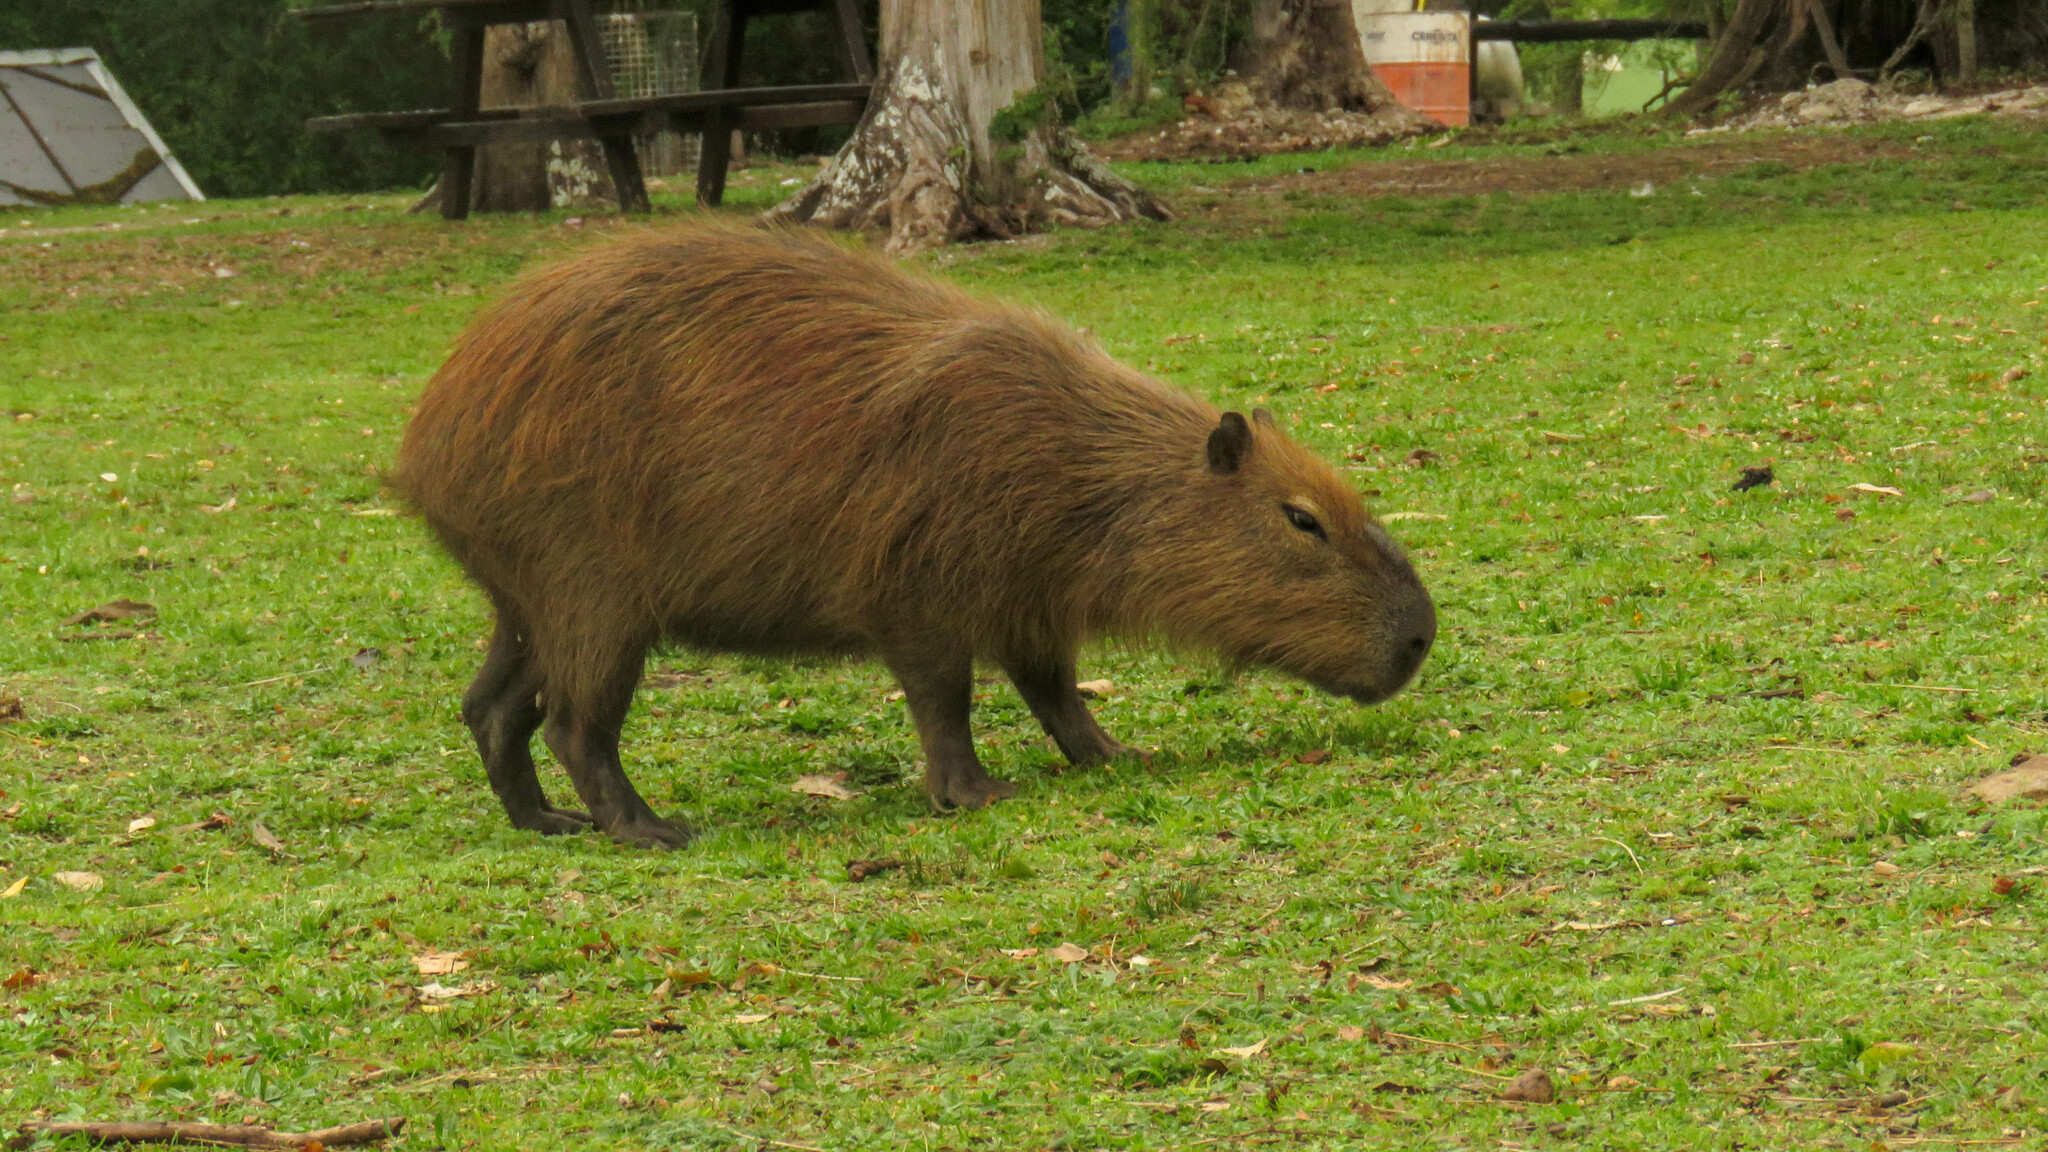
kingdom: Animalia
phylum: Chordata
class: Mammalia
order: Rodentia
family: Caviidae
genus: Hydrochoerus
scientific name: Hydrochoerus hydrochaeris
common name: Capybara
